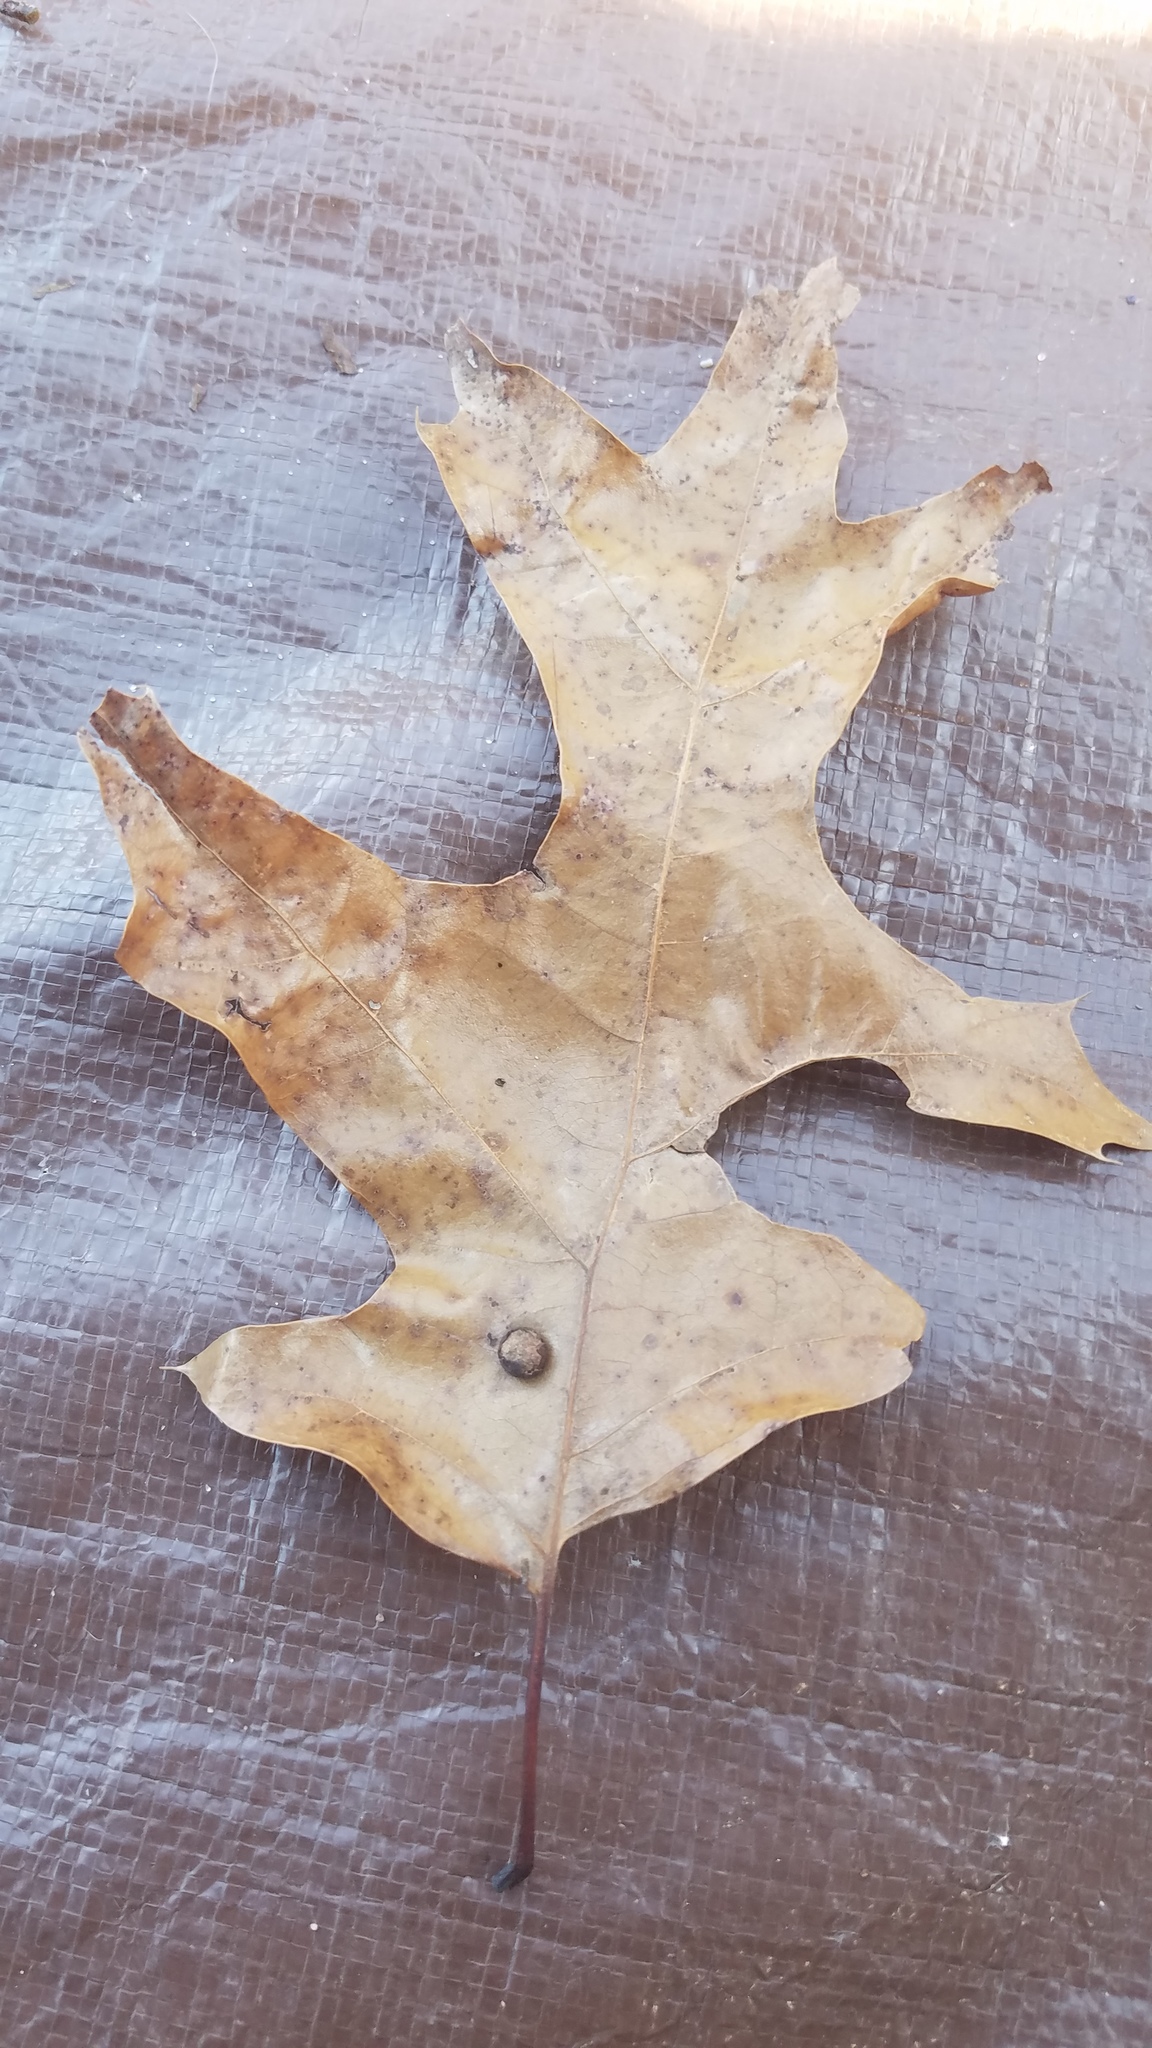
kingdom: Animalia
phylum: Arthropoda
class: Insecta
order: Diptera
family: Cecidomyiidae
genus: Polystepha
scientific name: Polystepha pilulae
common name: Oak leaf gall midge
